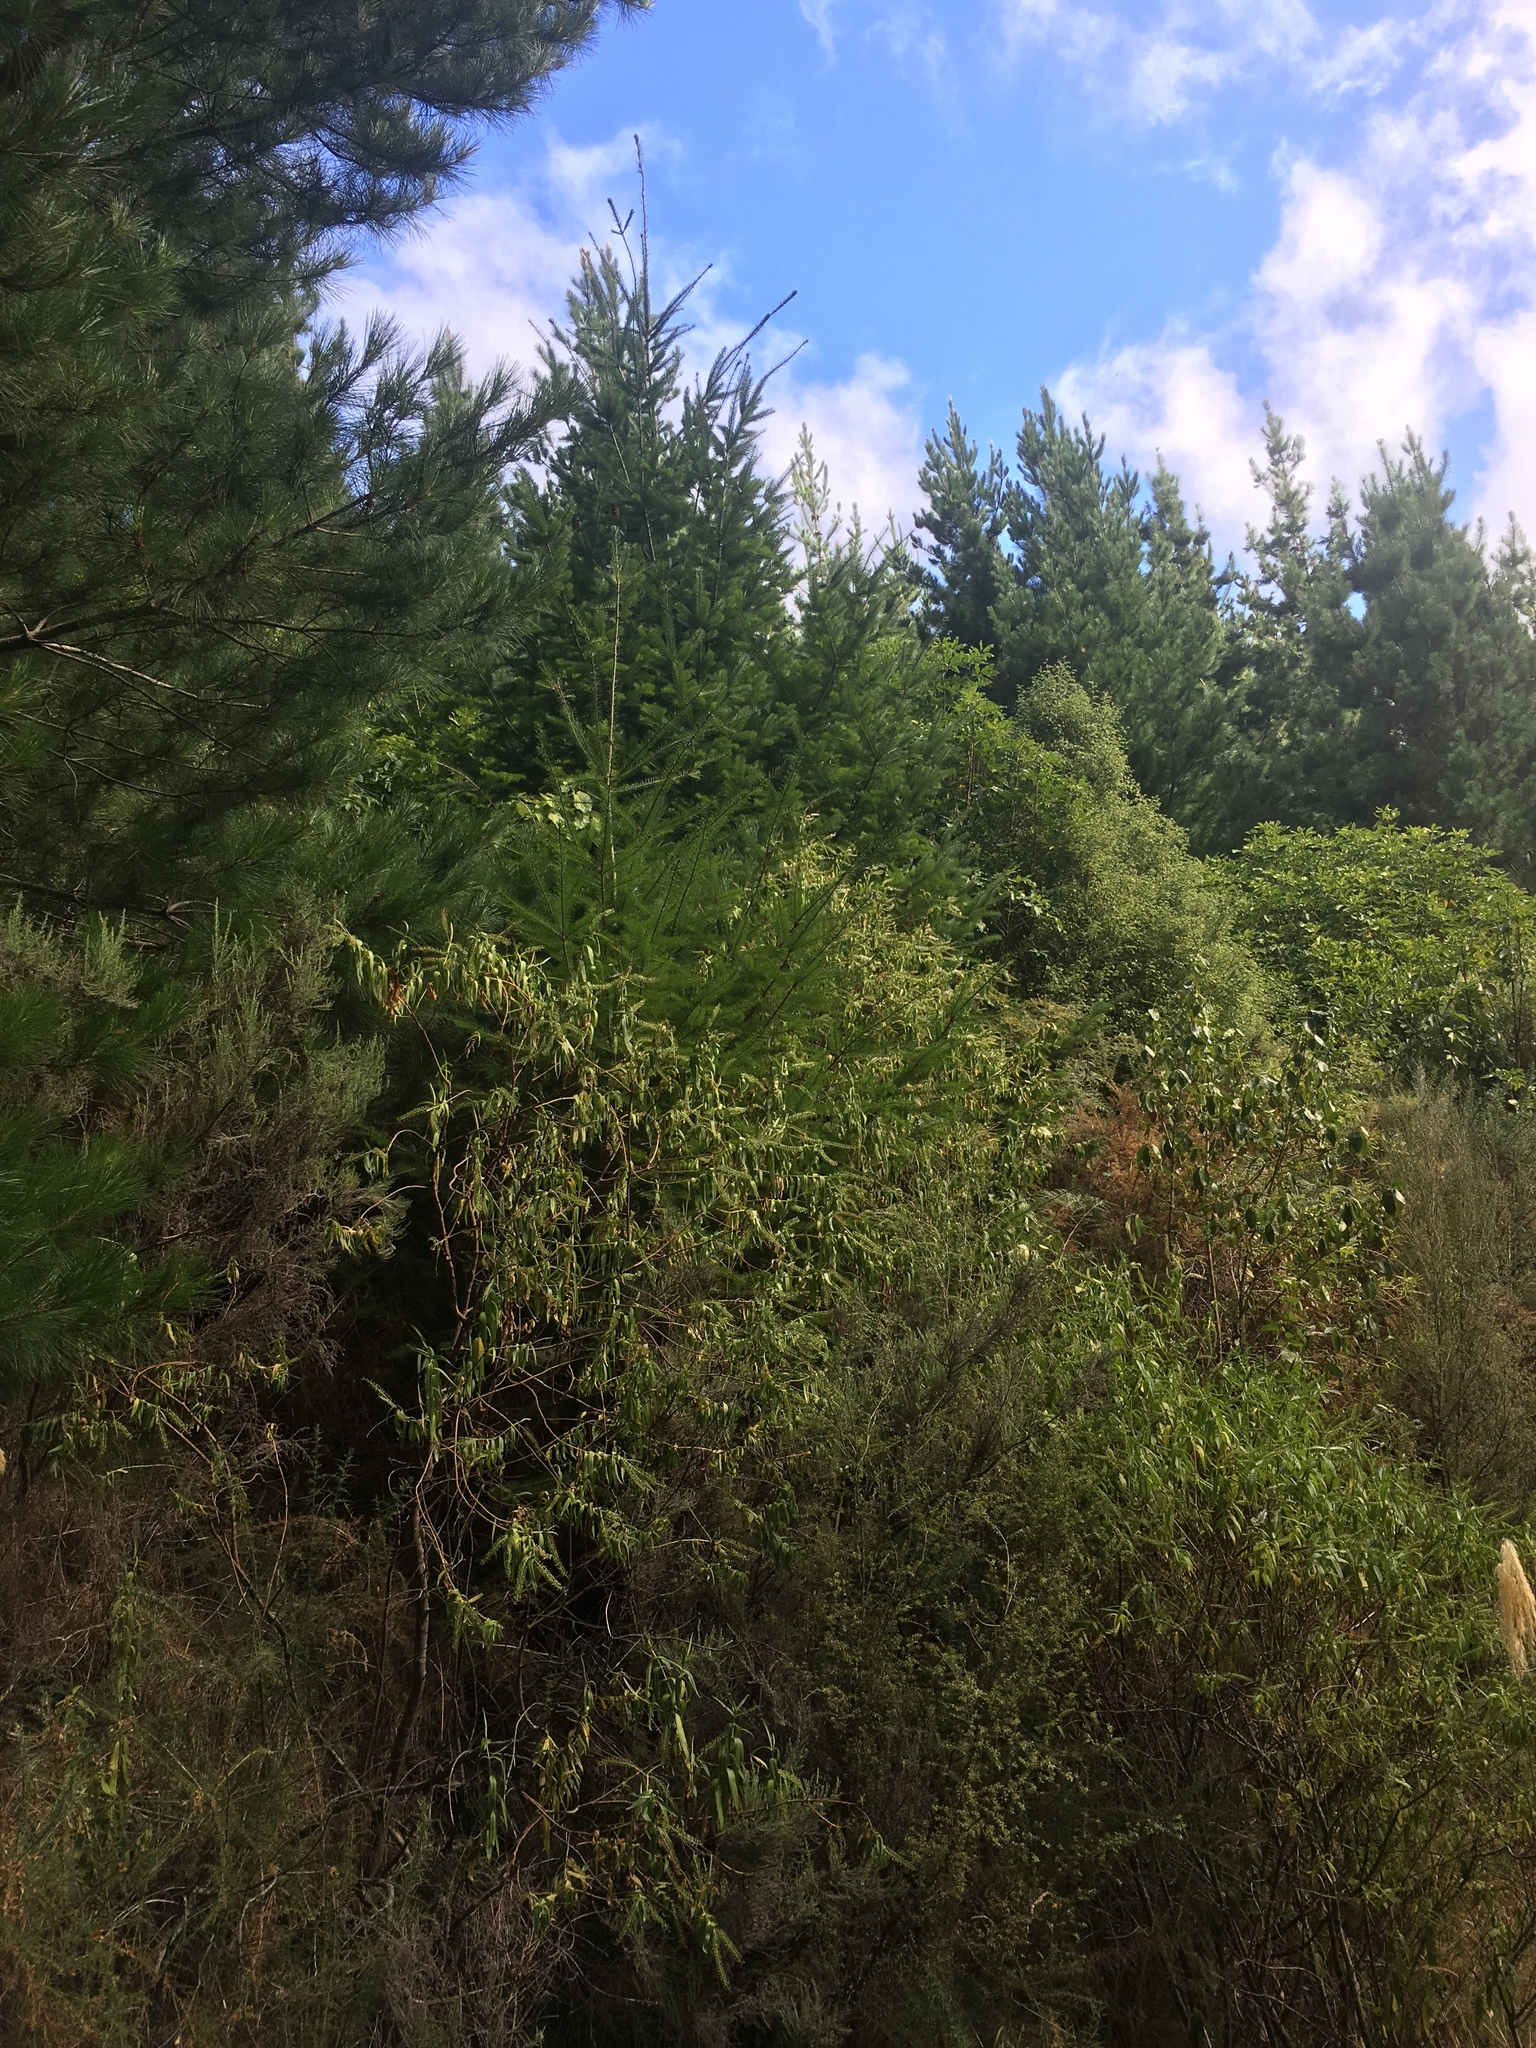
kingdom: Plantae
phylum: Tracheophyta
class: Pinopsida
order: Pinales
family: Pinaceae
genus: Pseudotsuga
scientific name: Pseudotsuga menziesii
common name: Douglas fir
